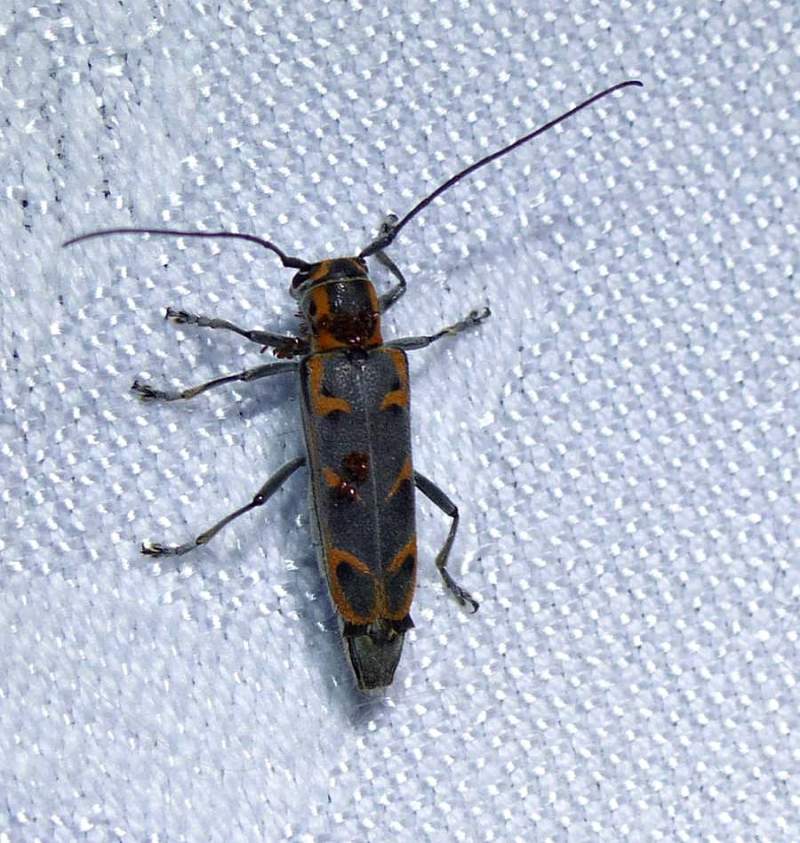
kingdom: Animalia
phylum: Arthropoda
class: Insecta
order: Coleoptera
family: Cerambycidae
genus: Saperda
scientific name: Saperda tridentata
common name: Elm borer
